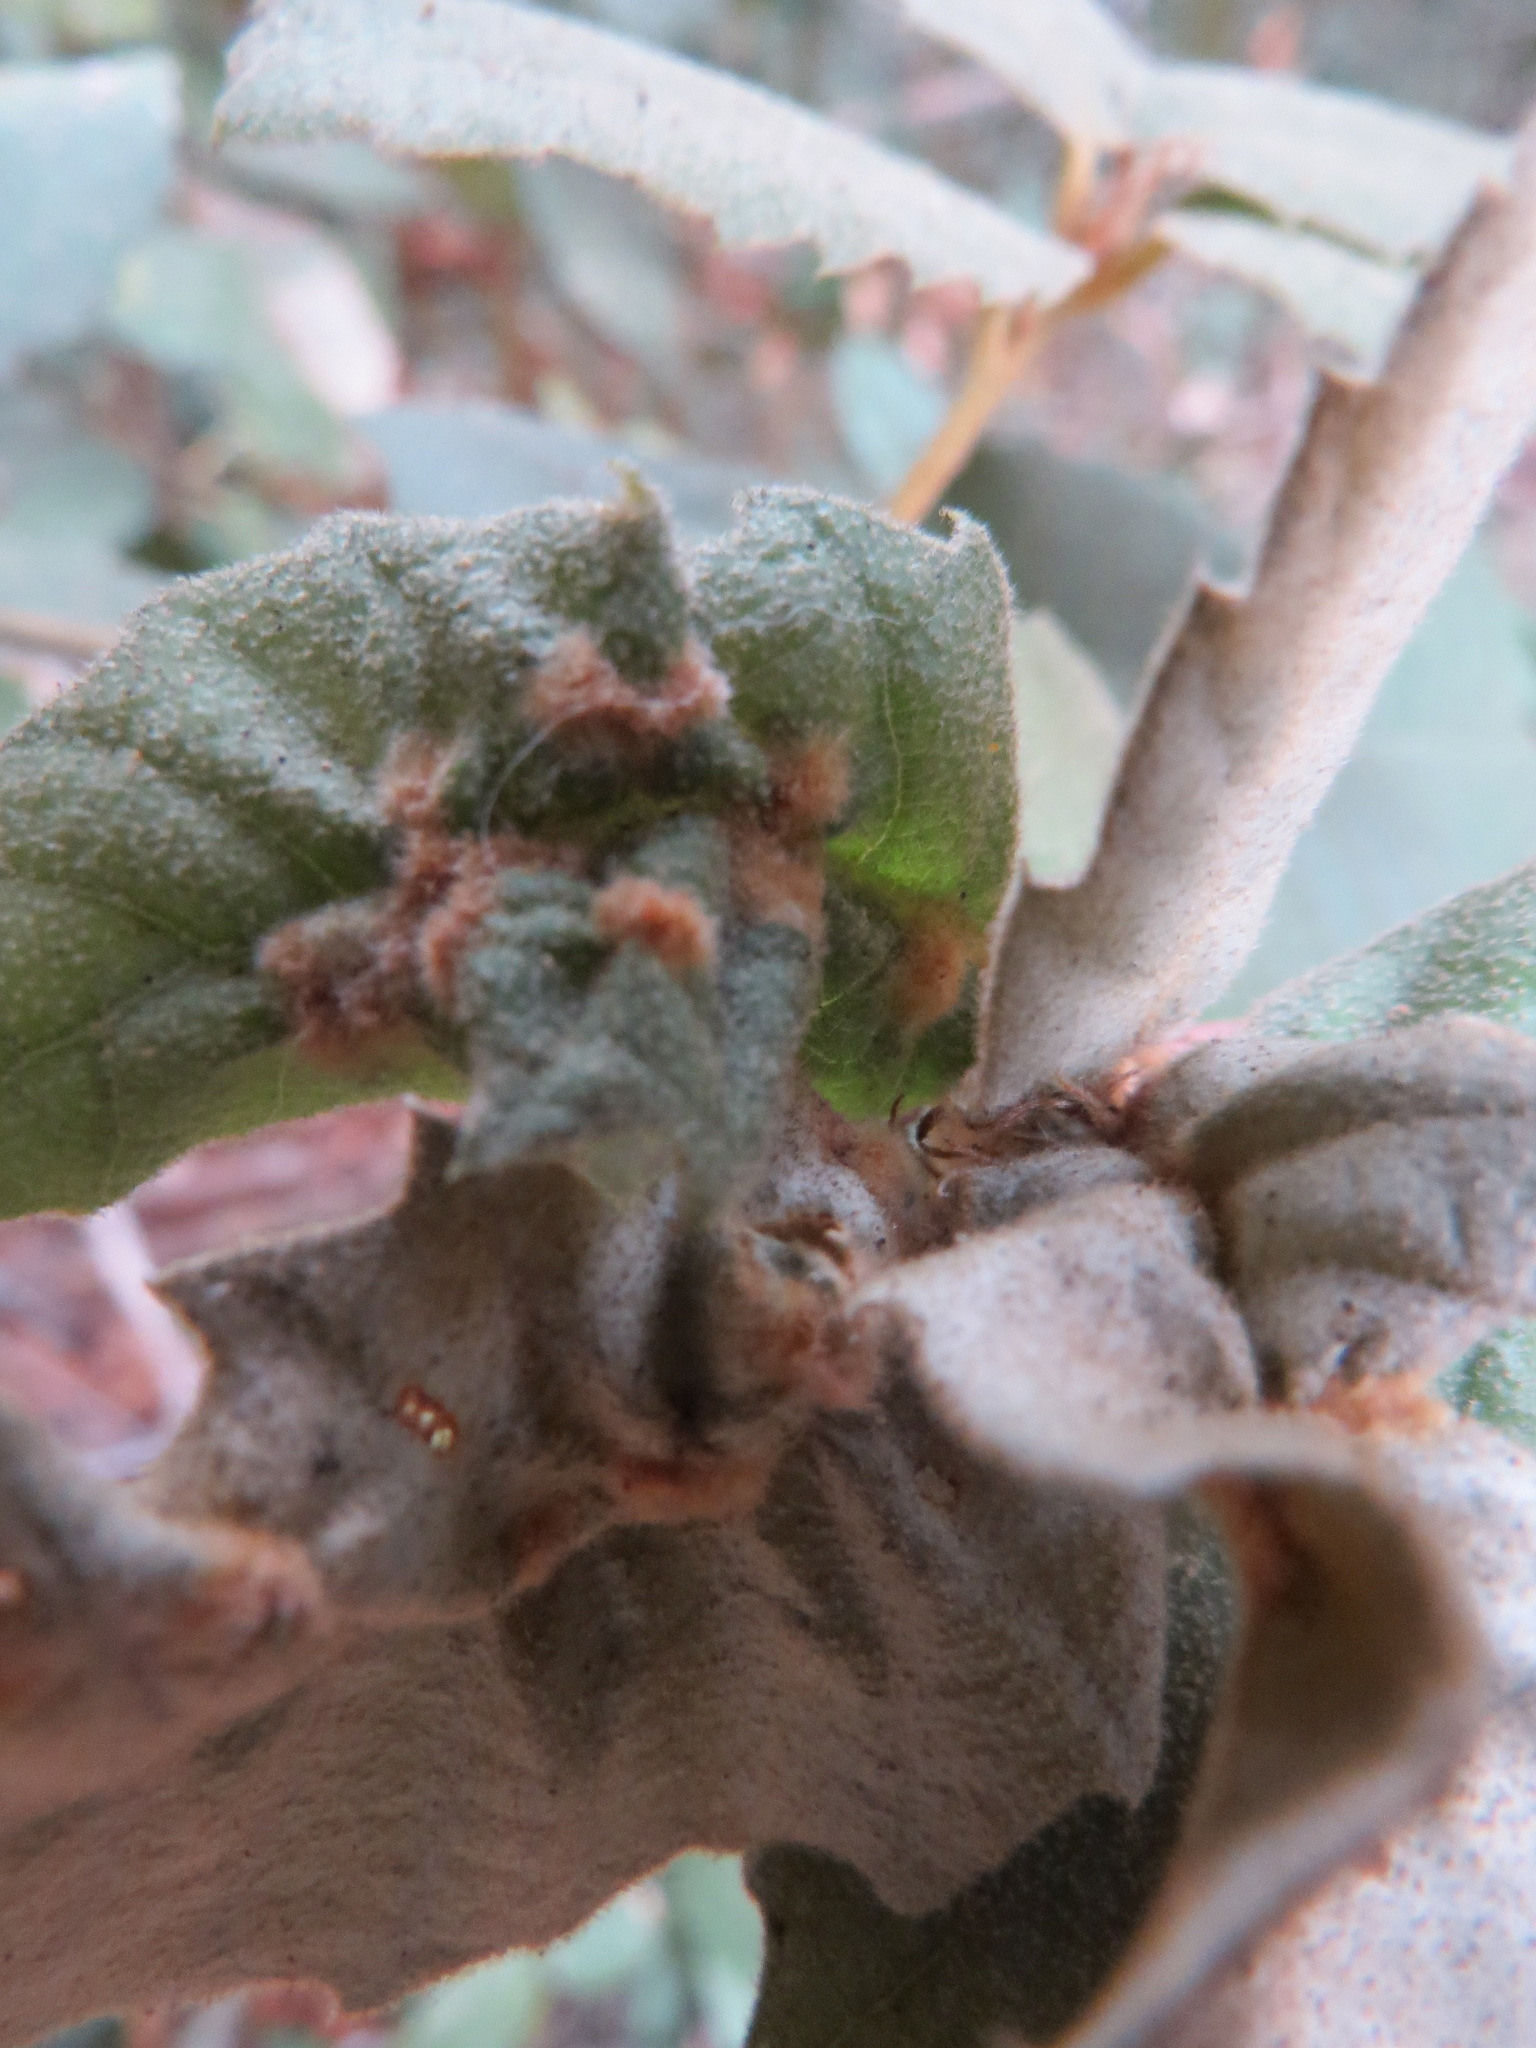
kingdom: Plantae
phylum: Tracheophyta
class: Magnoliopsida
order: Fagales
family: Fagaceae
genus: Notholithocarpus
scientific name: Notholithocarpus densiflorus
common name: Tan bark oak
